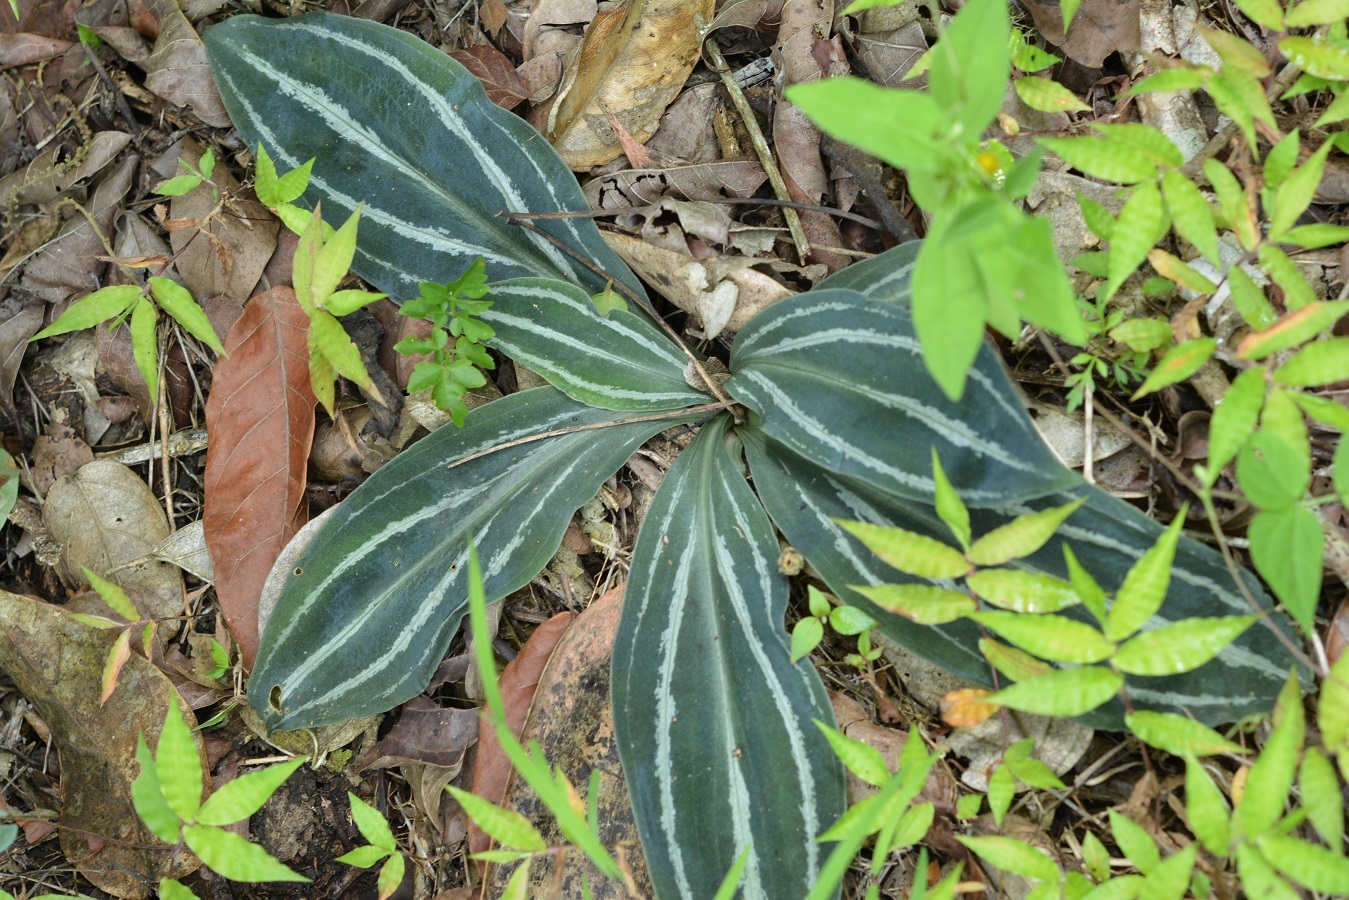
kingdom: Plantae
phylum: Tracheophyta
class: Liliopsida
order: Asparagales
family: Orchidaceae
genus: Sarcoglottis
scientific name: Sarcoglottis sceptrodes
